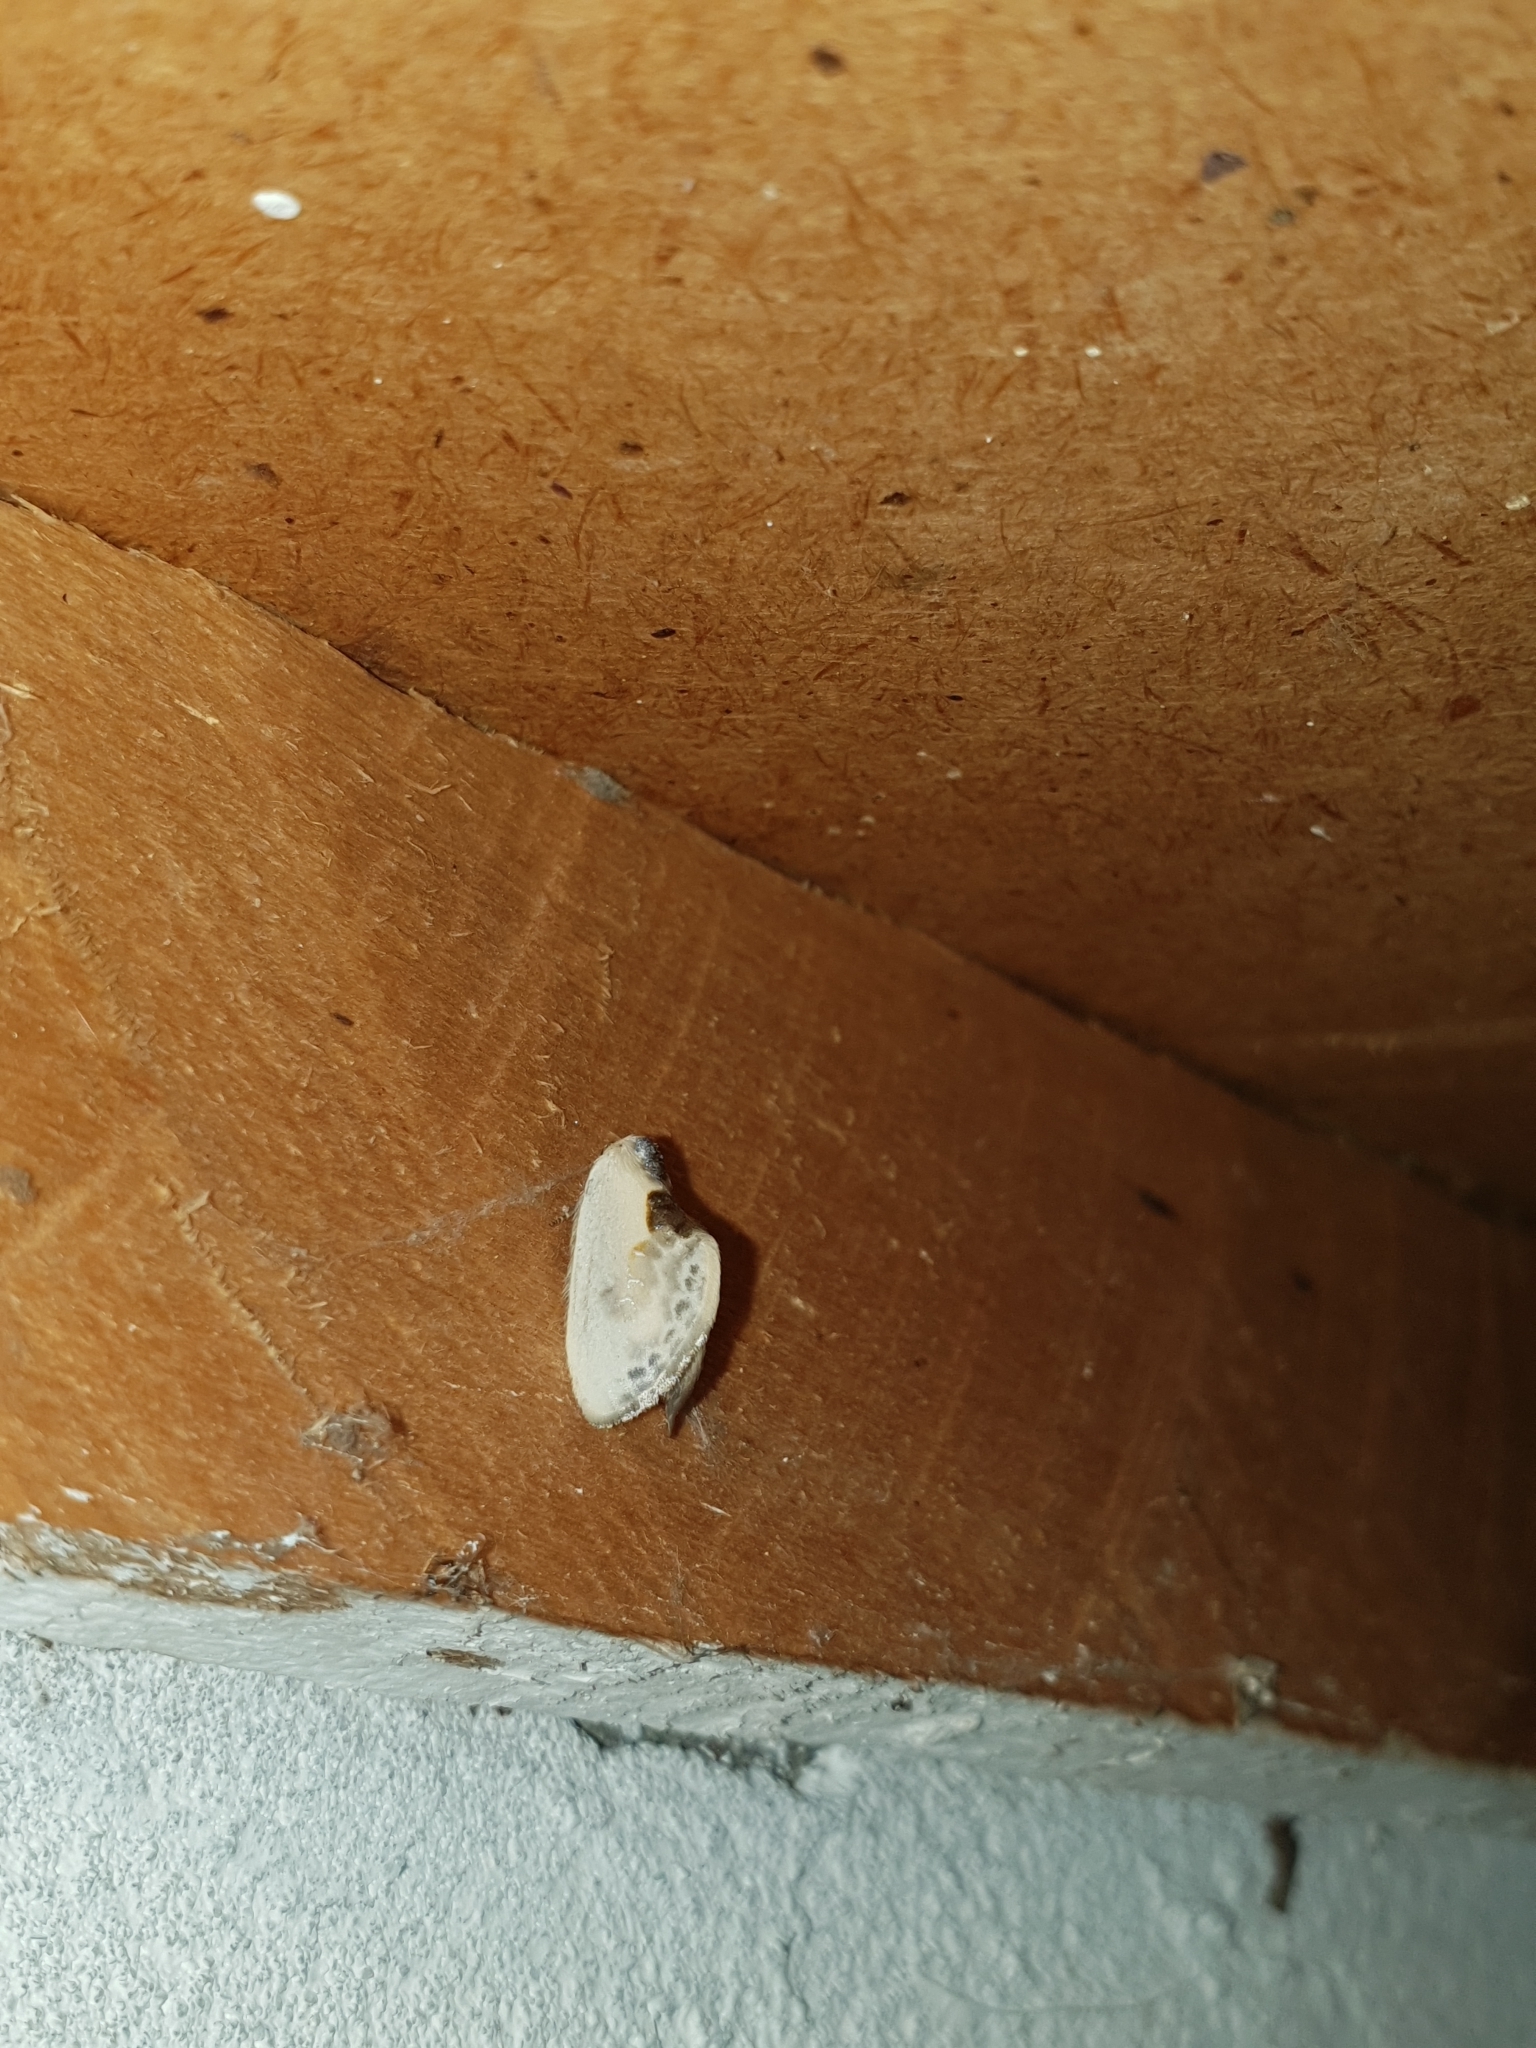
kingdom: Animalia
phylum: Arthropoda
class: Insecta
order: Lepidoptera
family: Drepanidae
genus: Cilix
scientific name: Cilix glaucata
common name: Chinese character
